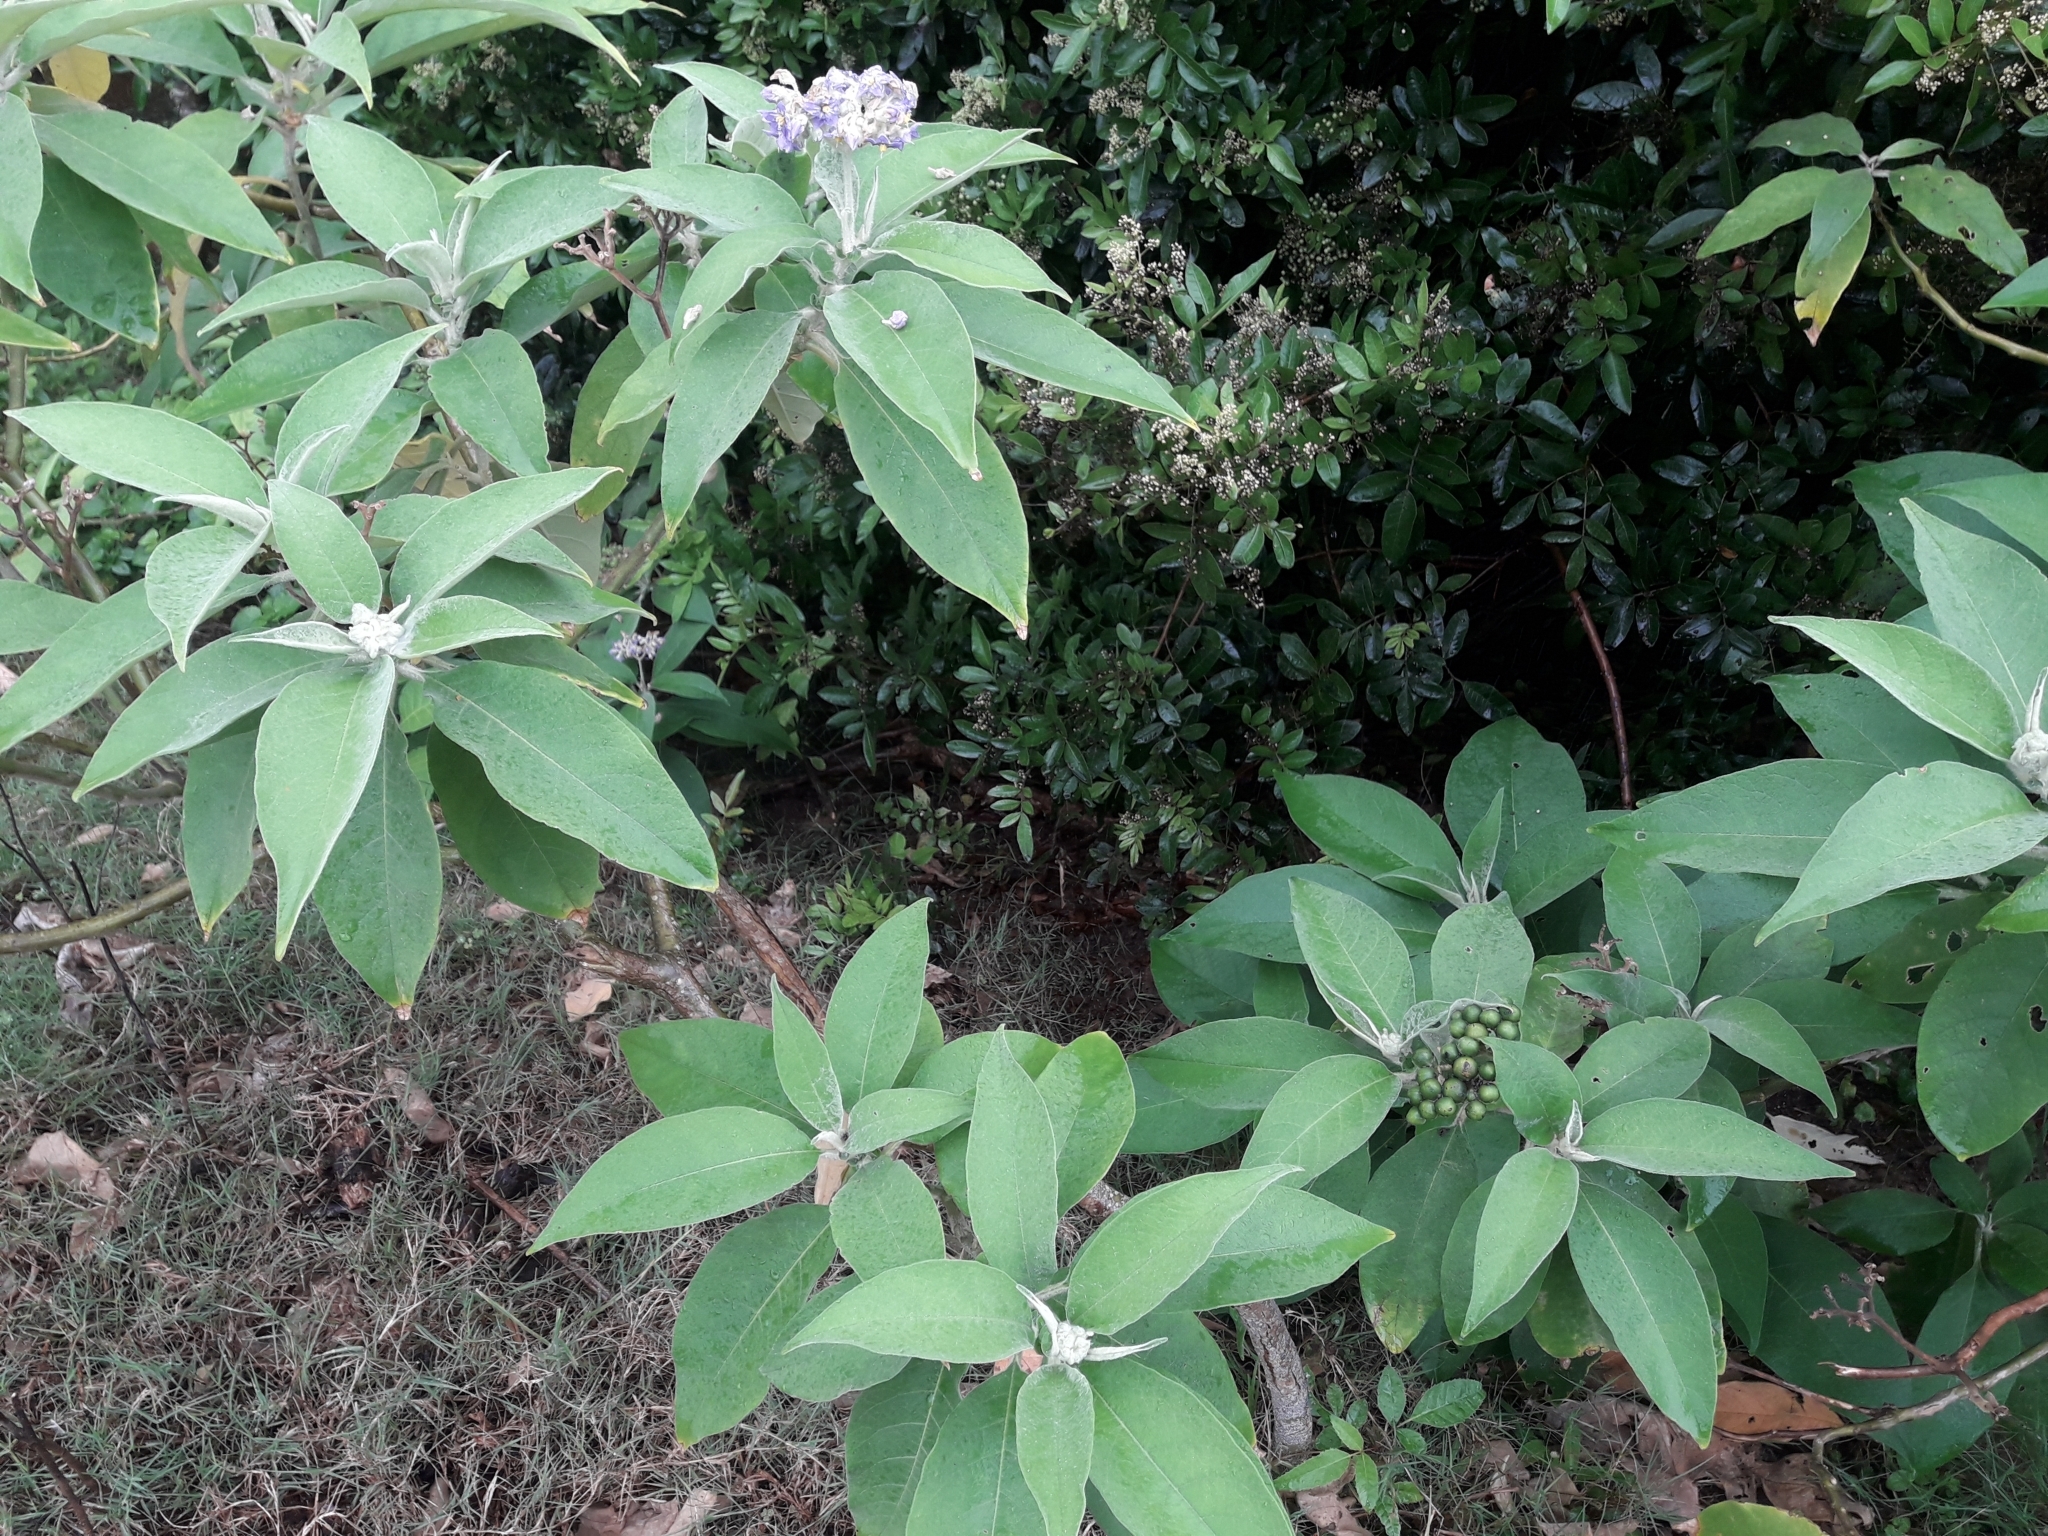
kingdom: Plantae
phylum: Tracheophyta
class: Magnoliopsida
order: Solanales
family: Solanaceae
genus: Solanum
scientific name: Solanum mauritianum
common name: Earleaf nightshade
